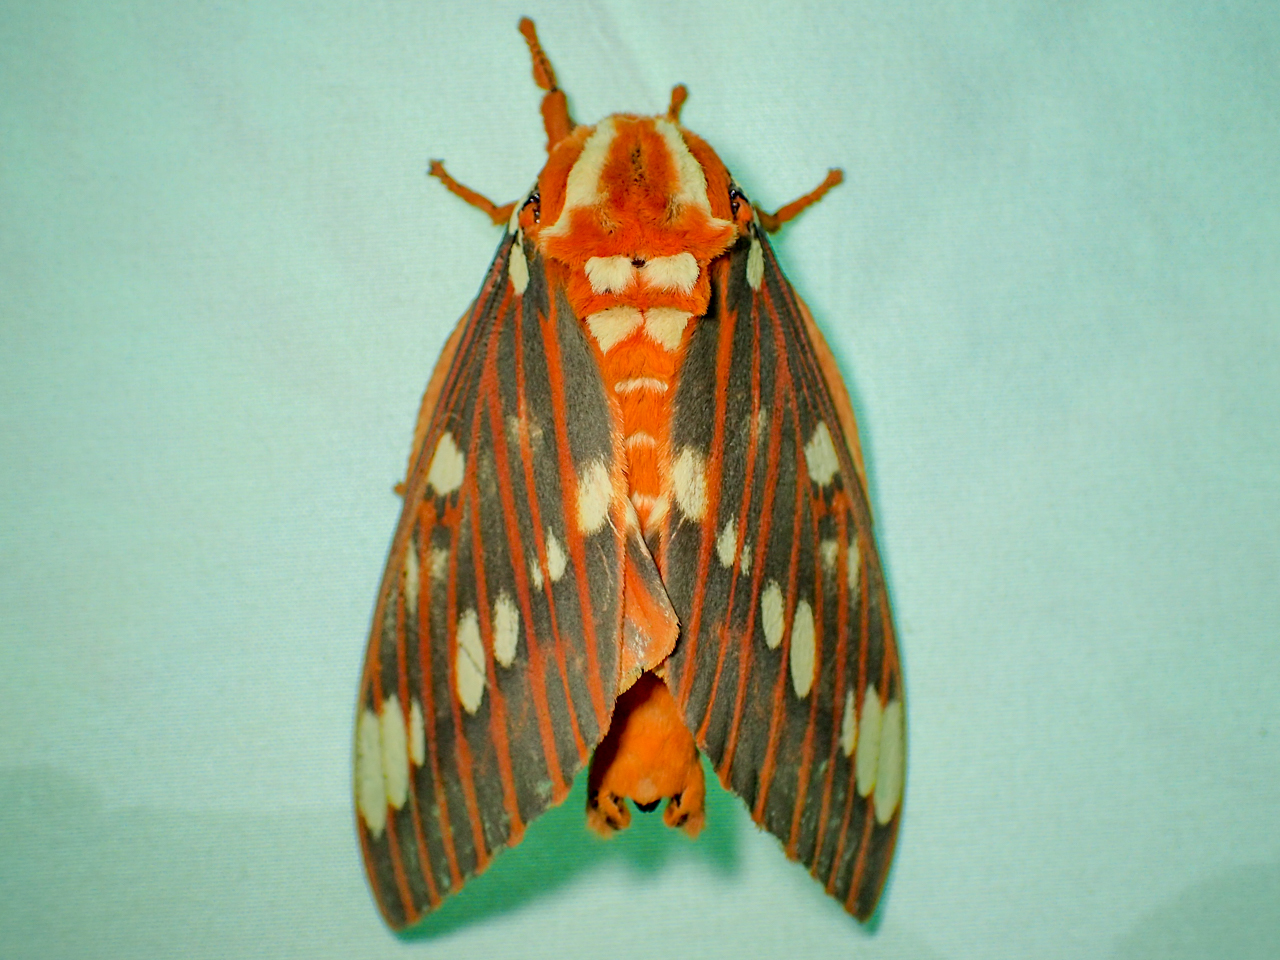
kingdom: Animalia
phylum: Arthropoda
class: Insecta
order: Lepidoptera
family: Saturniidae
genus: Citheronia
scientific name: Citheronia regalis
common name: Hickory horned devil
